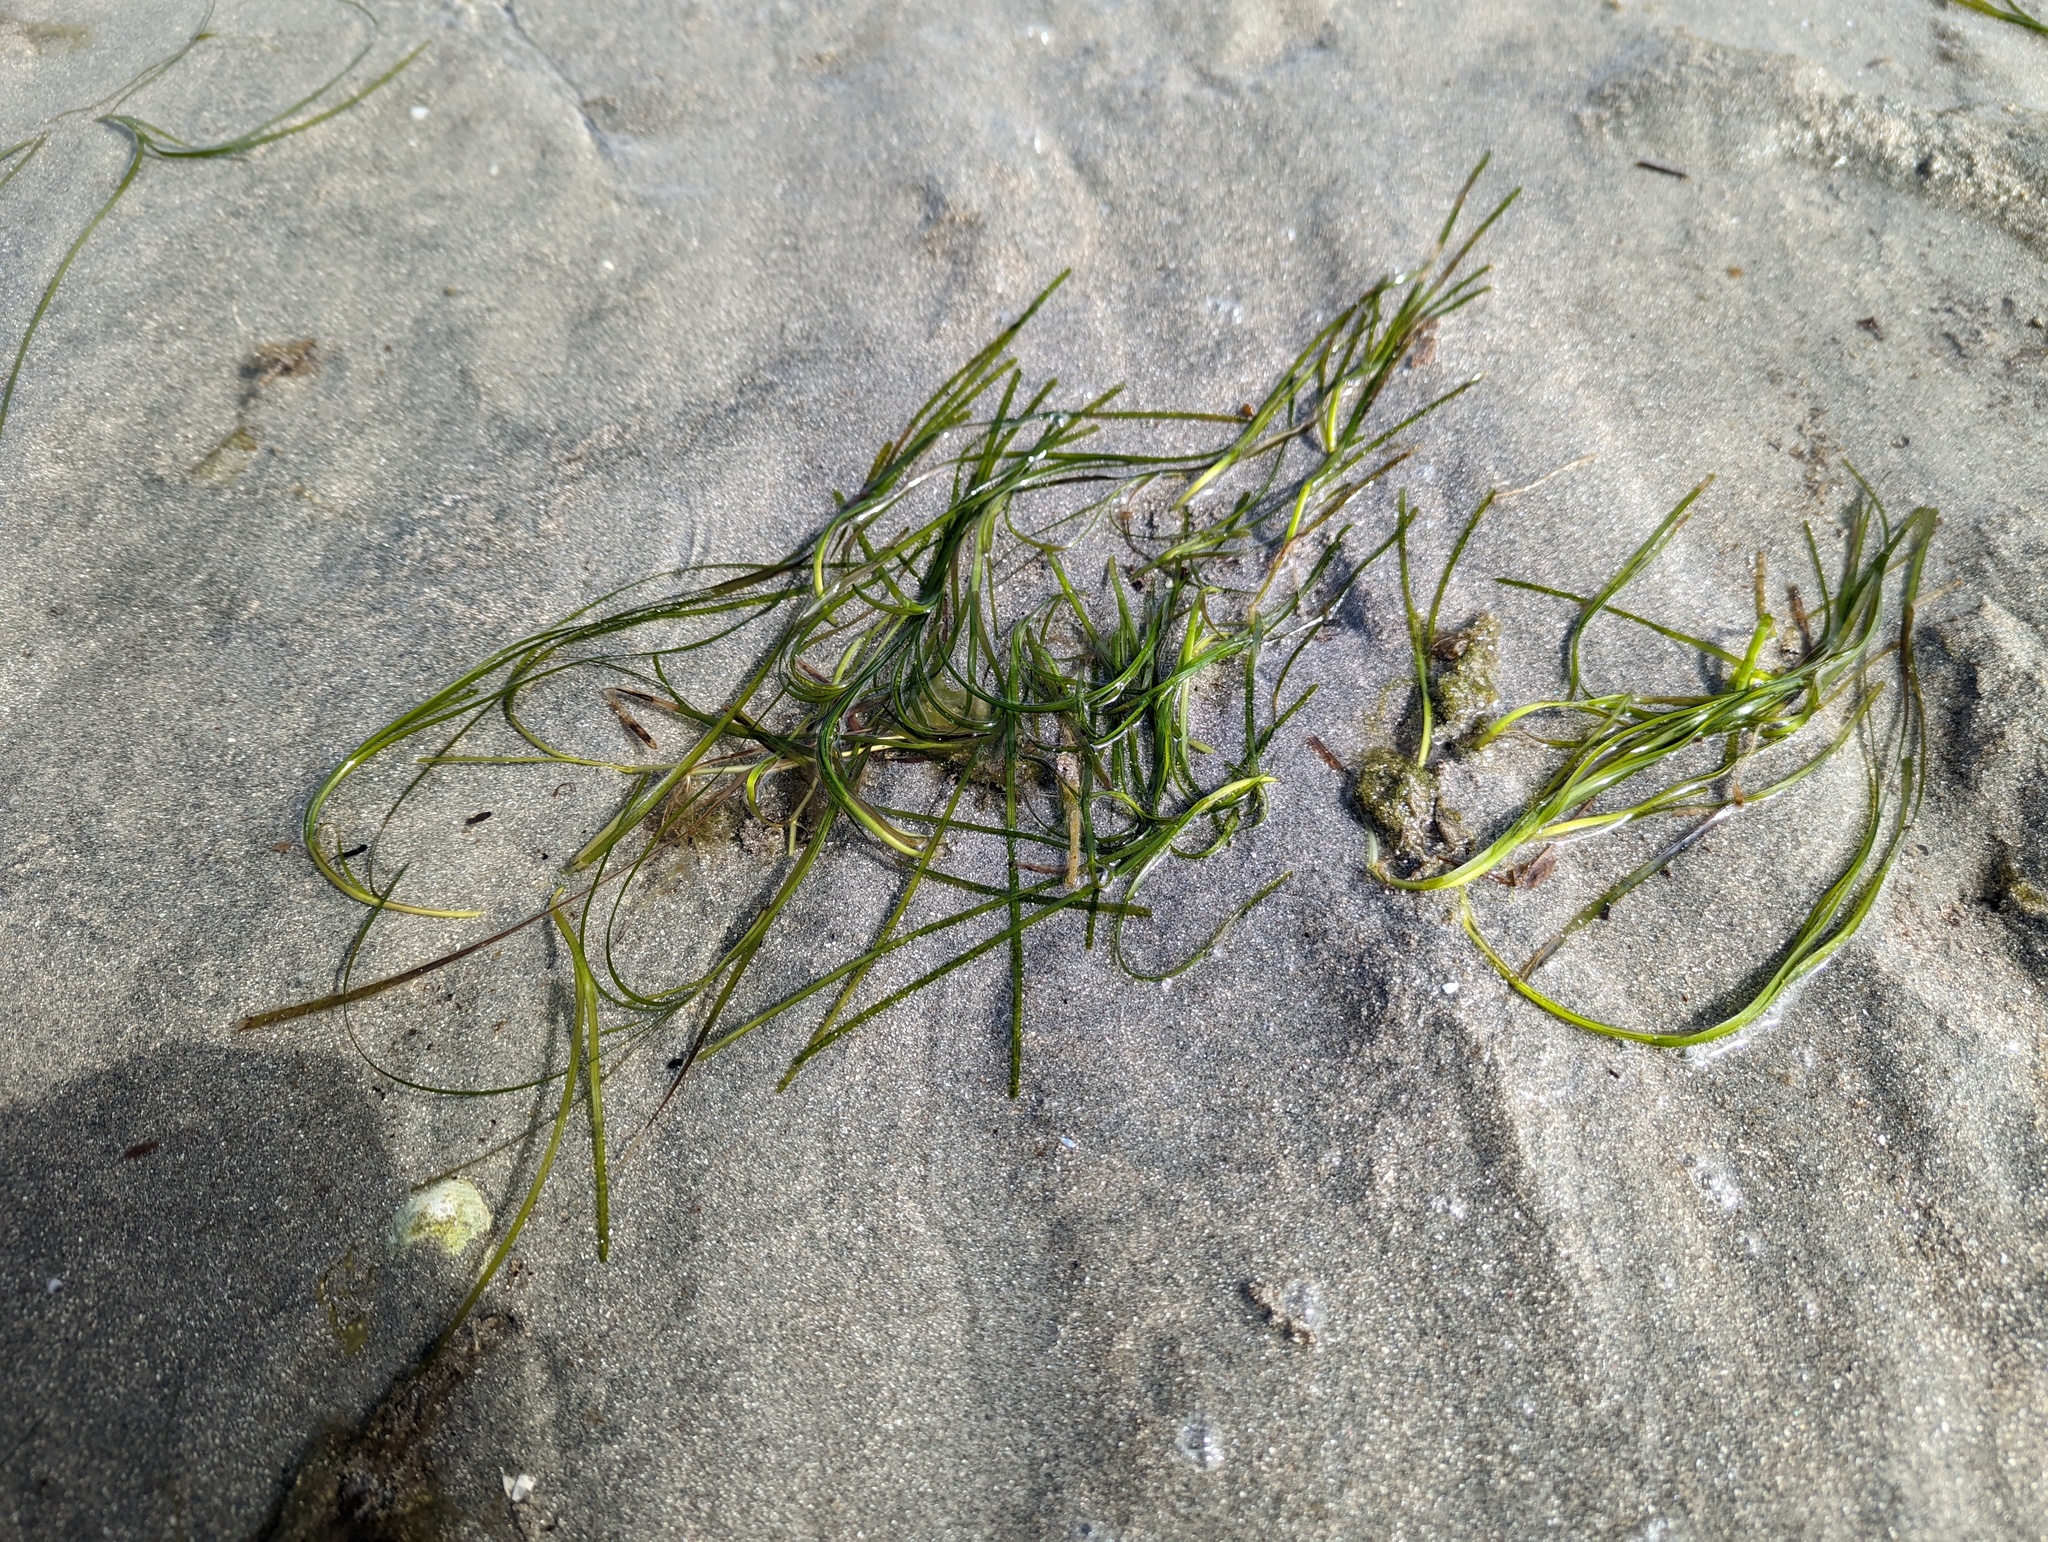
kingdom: Plantae
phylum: Tracheophyta
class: Liliopsida
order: Alismatales
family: Zosteraceae
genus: Zostera
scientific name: Zostera marina
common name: Eelgrass
